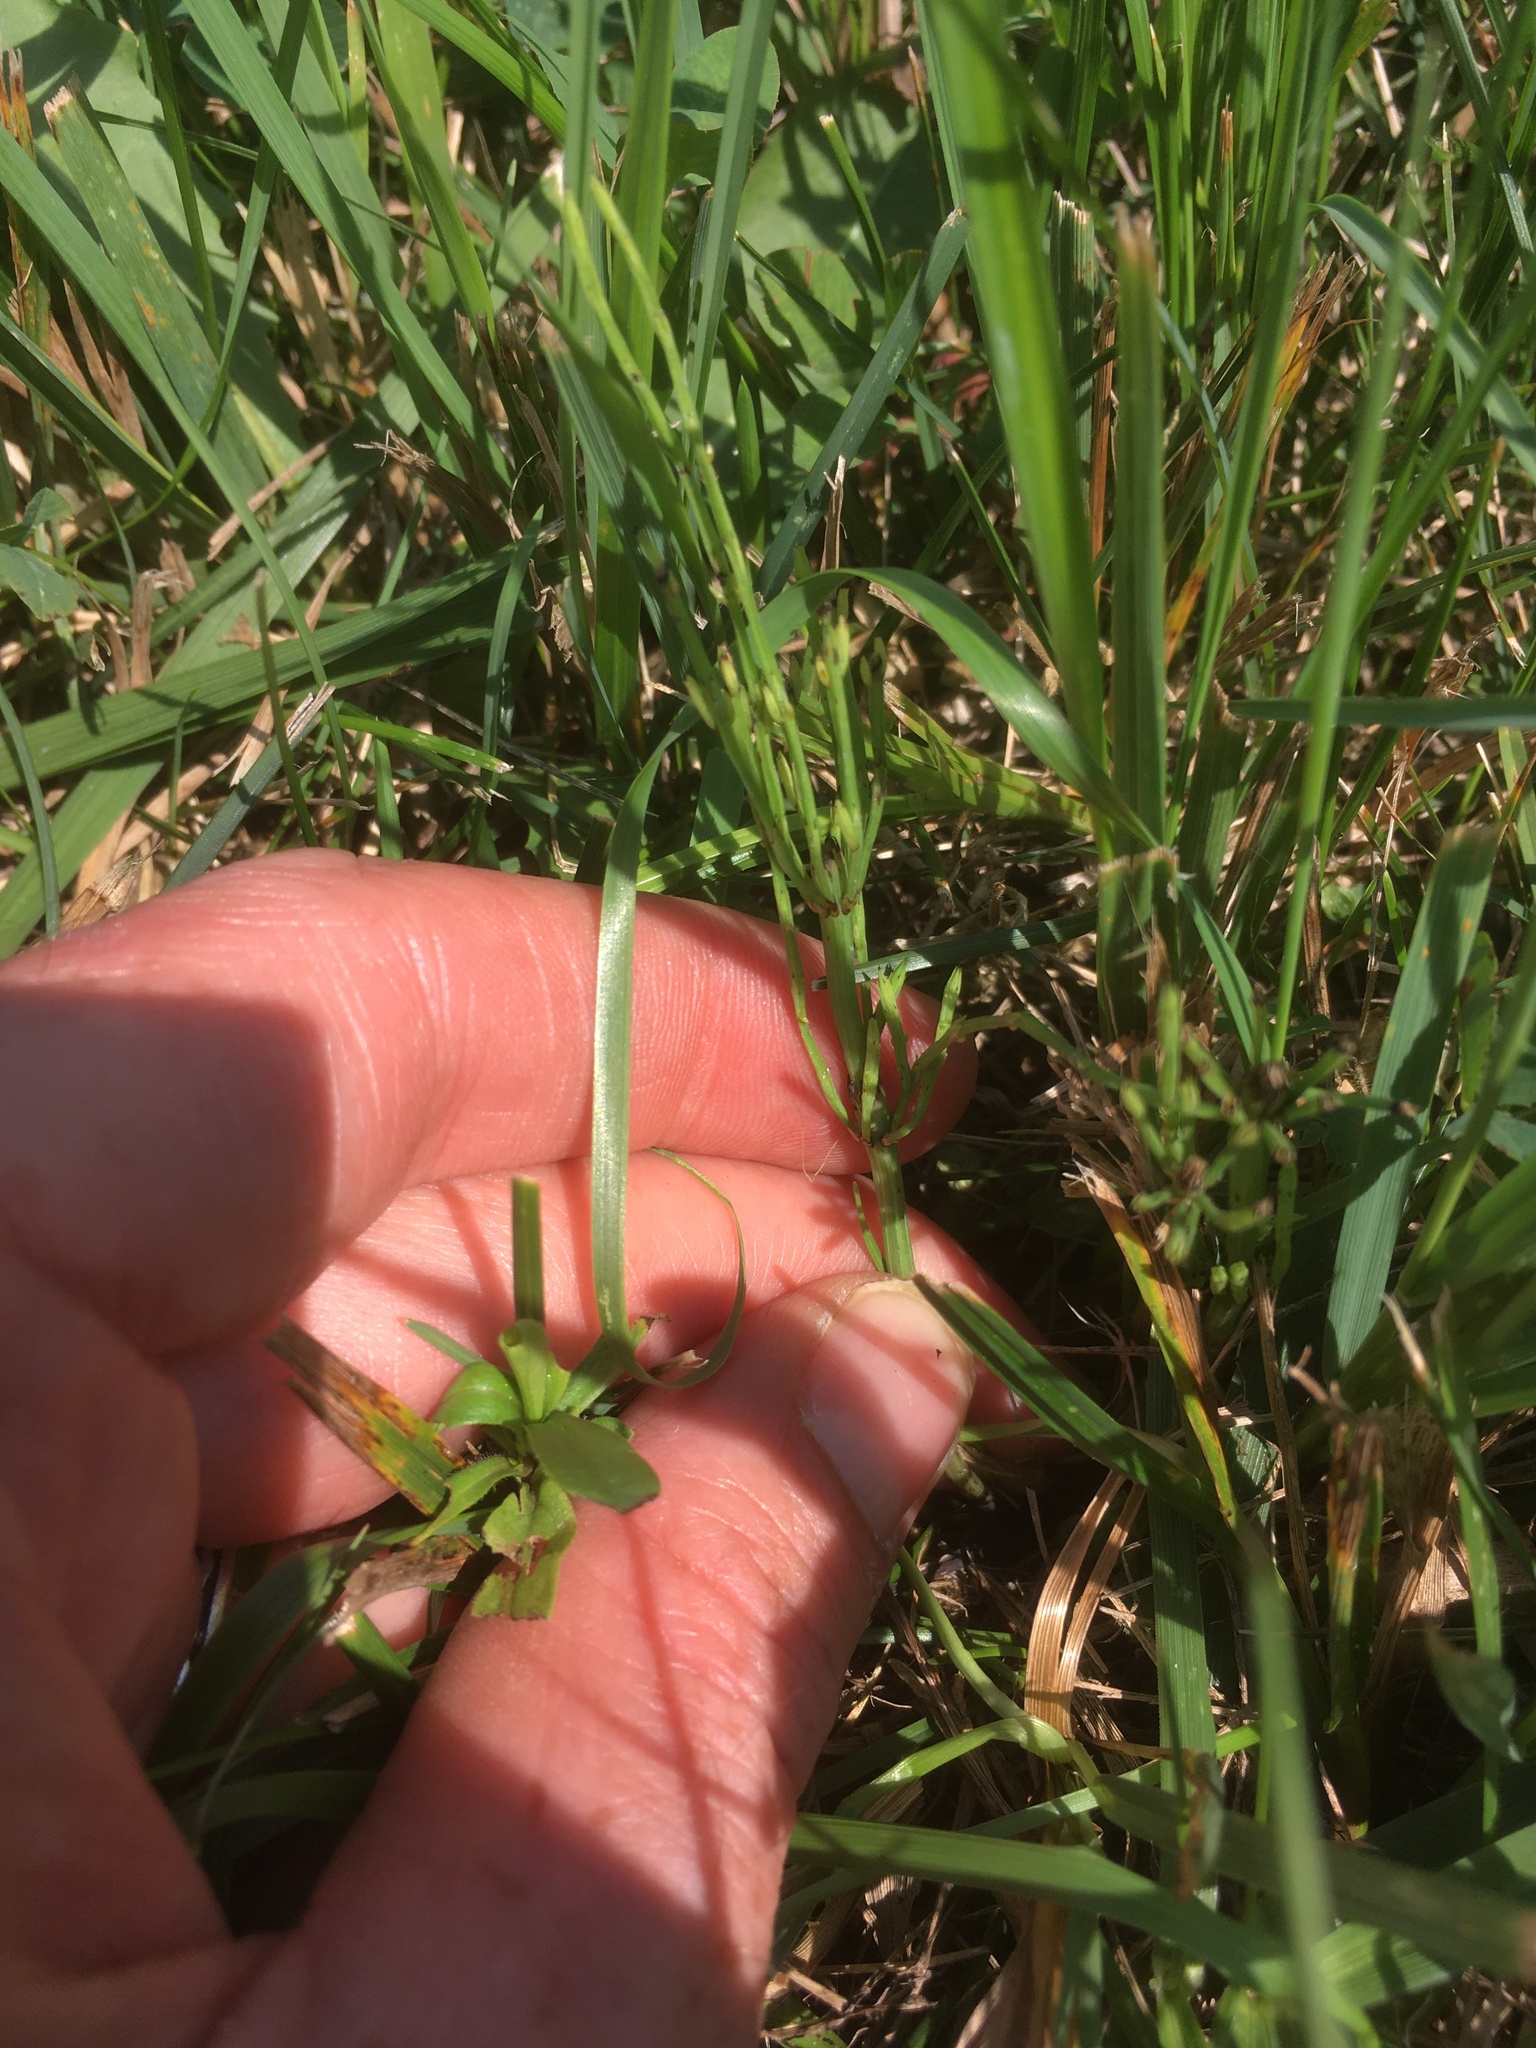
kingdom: Plantae
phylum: Tracheophyta
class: Polypodiopsida
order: Equisetales
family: Equisetaceae
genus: Equisetum
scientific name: Equisetum arvense
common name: Field horsetail
